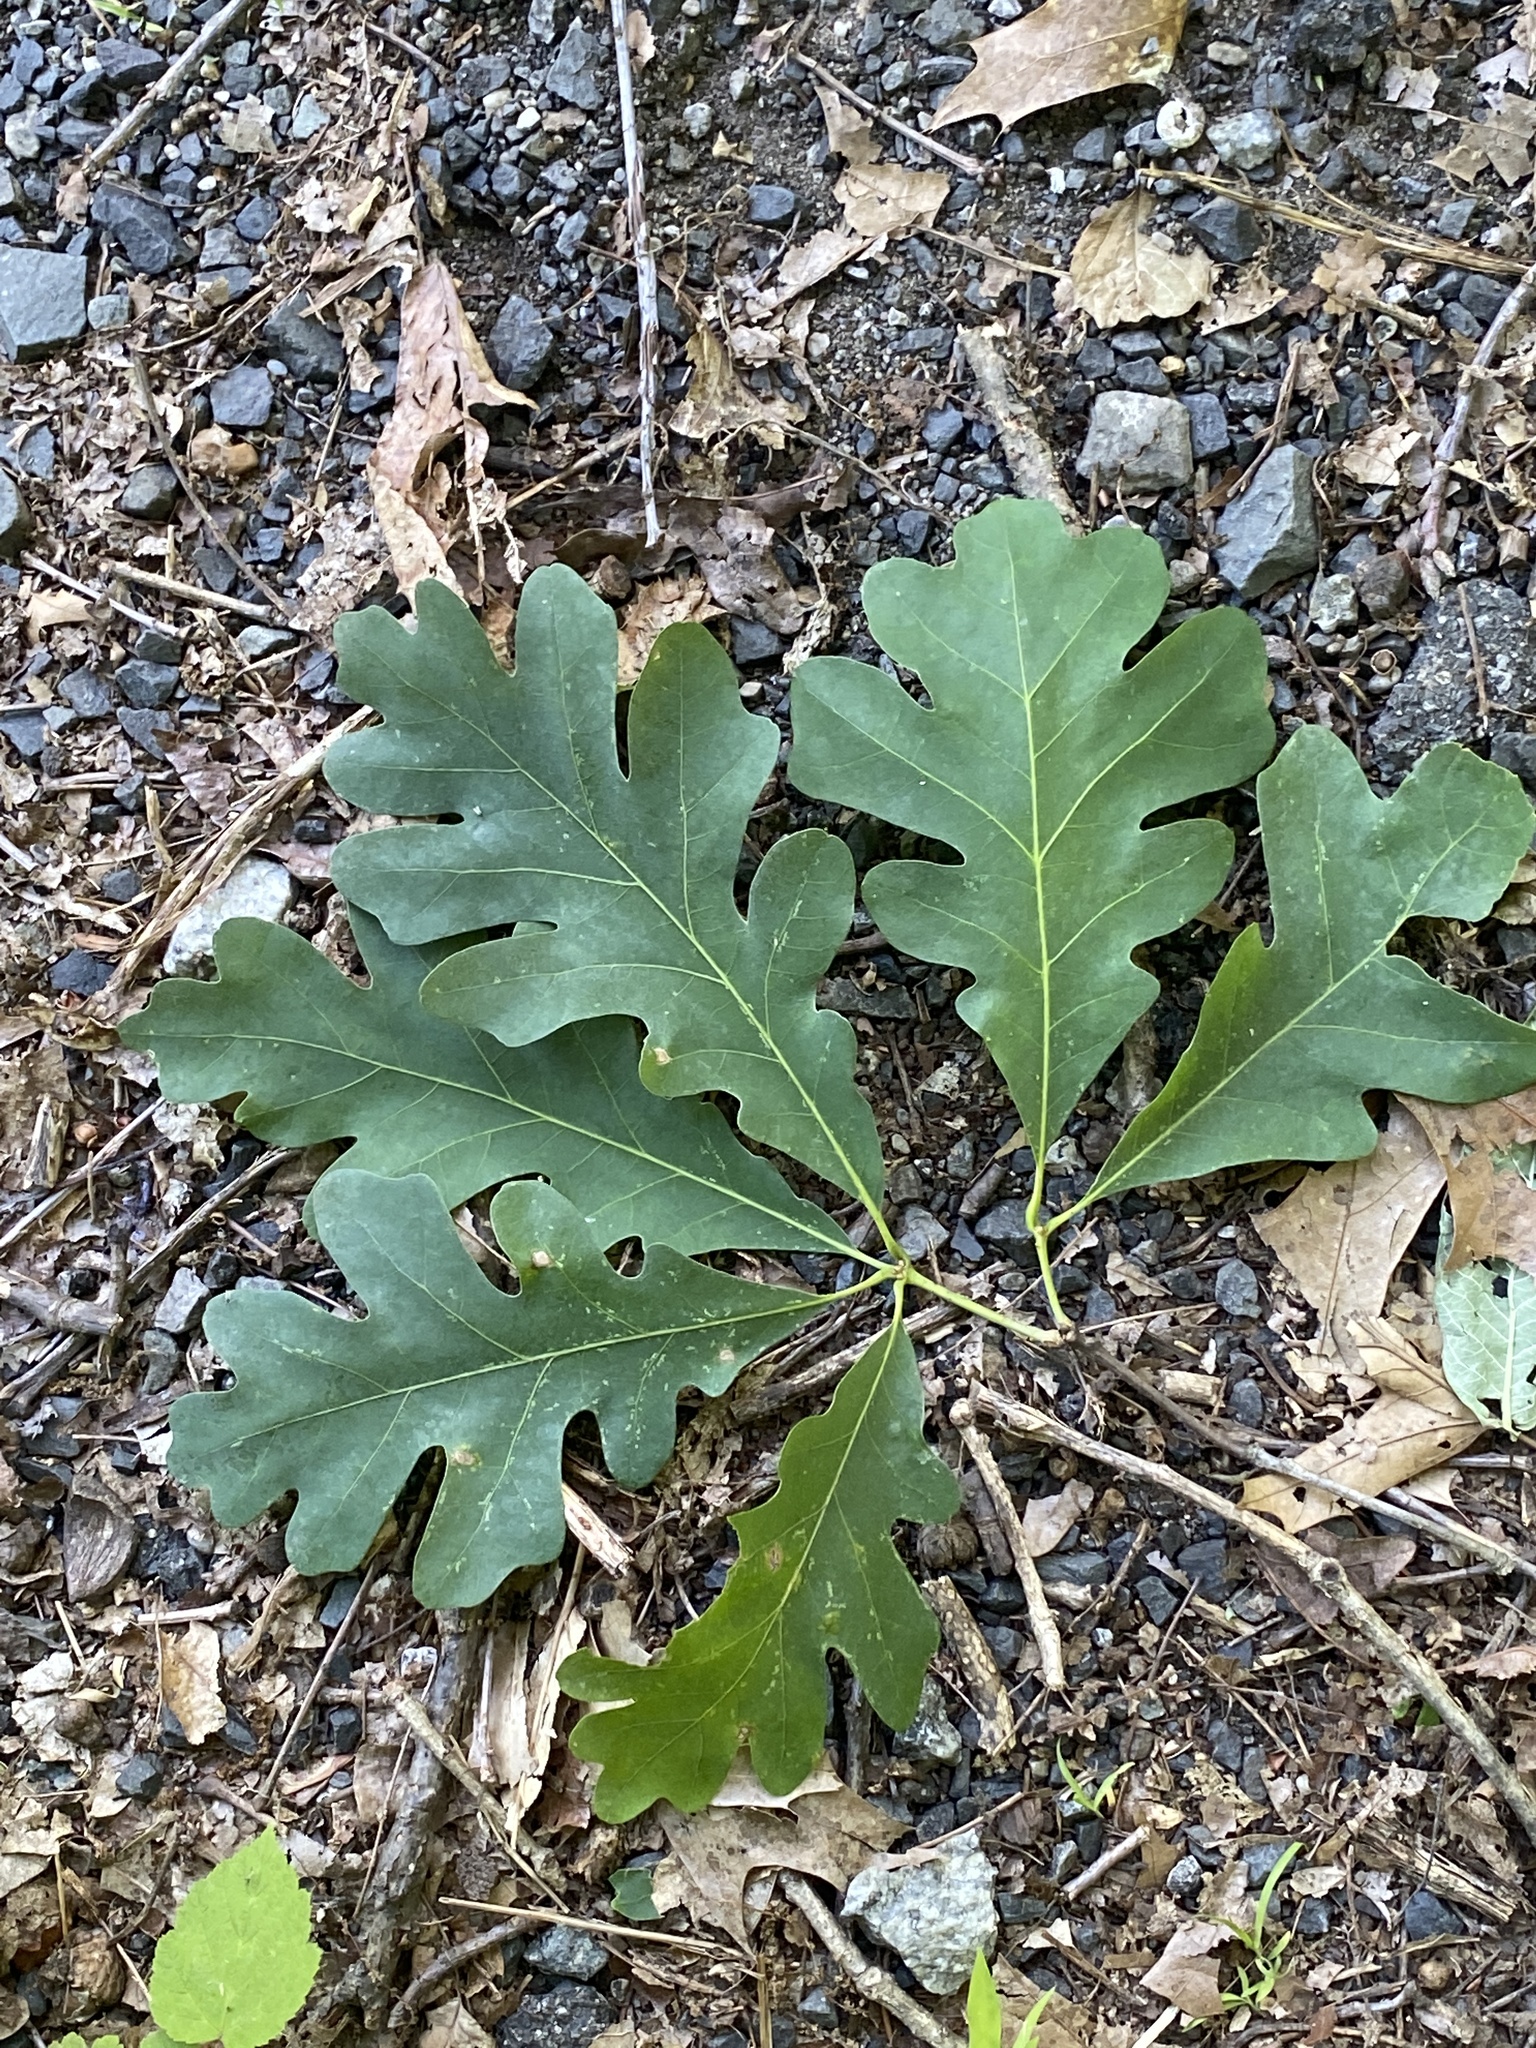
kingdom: Plantae
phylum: Tracheophyta
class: Magnoliopsida
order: Fagales
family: Fagaceae
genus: Quercus
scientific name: Quercus alba
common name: White oak
